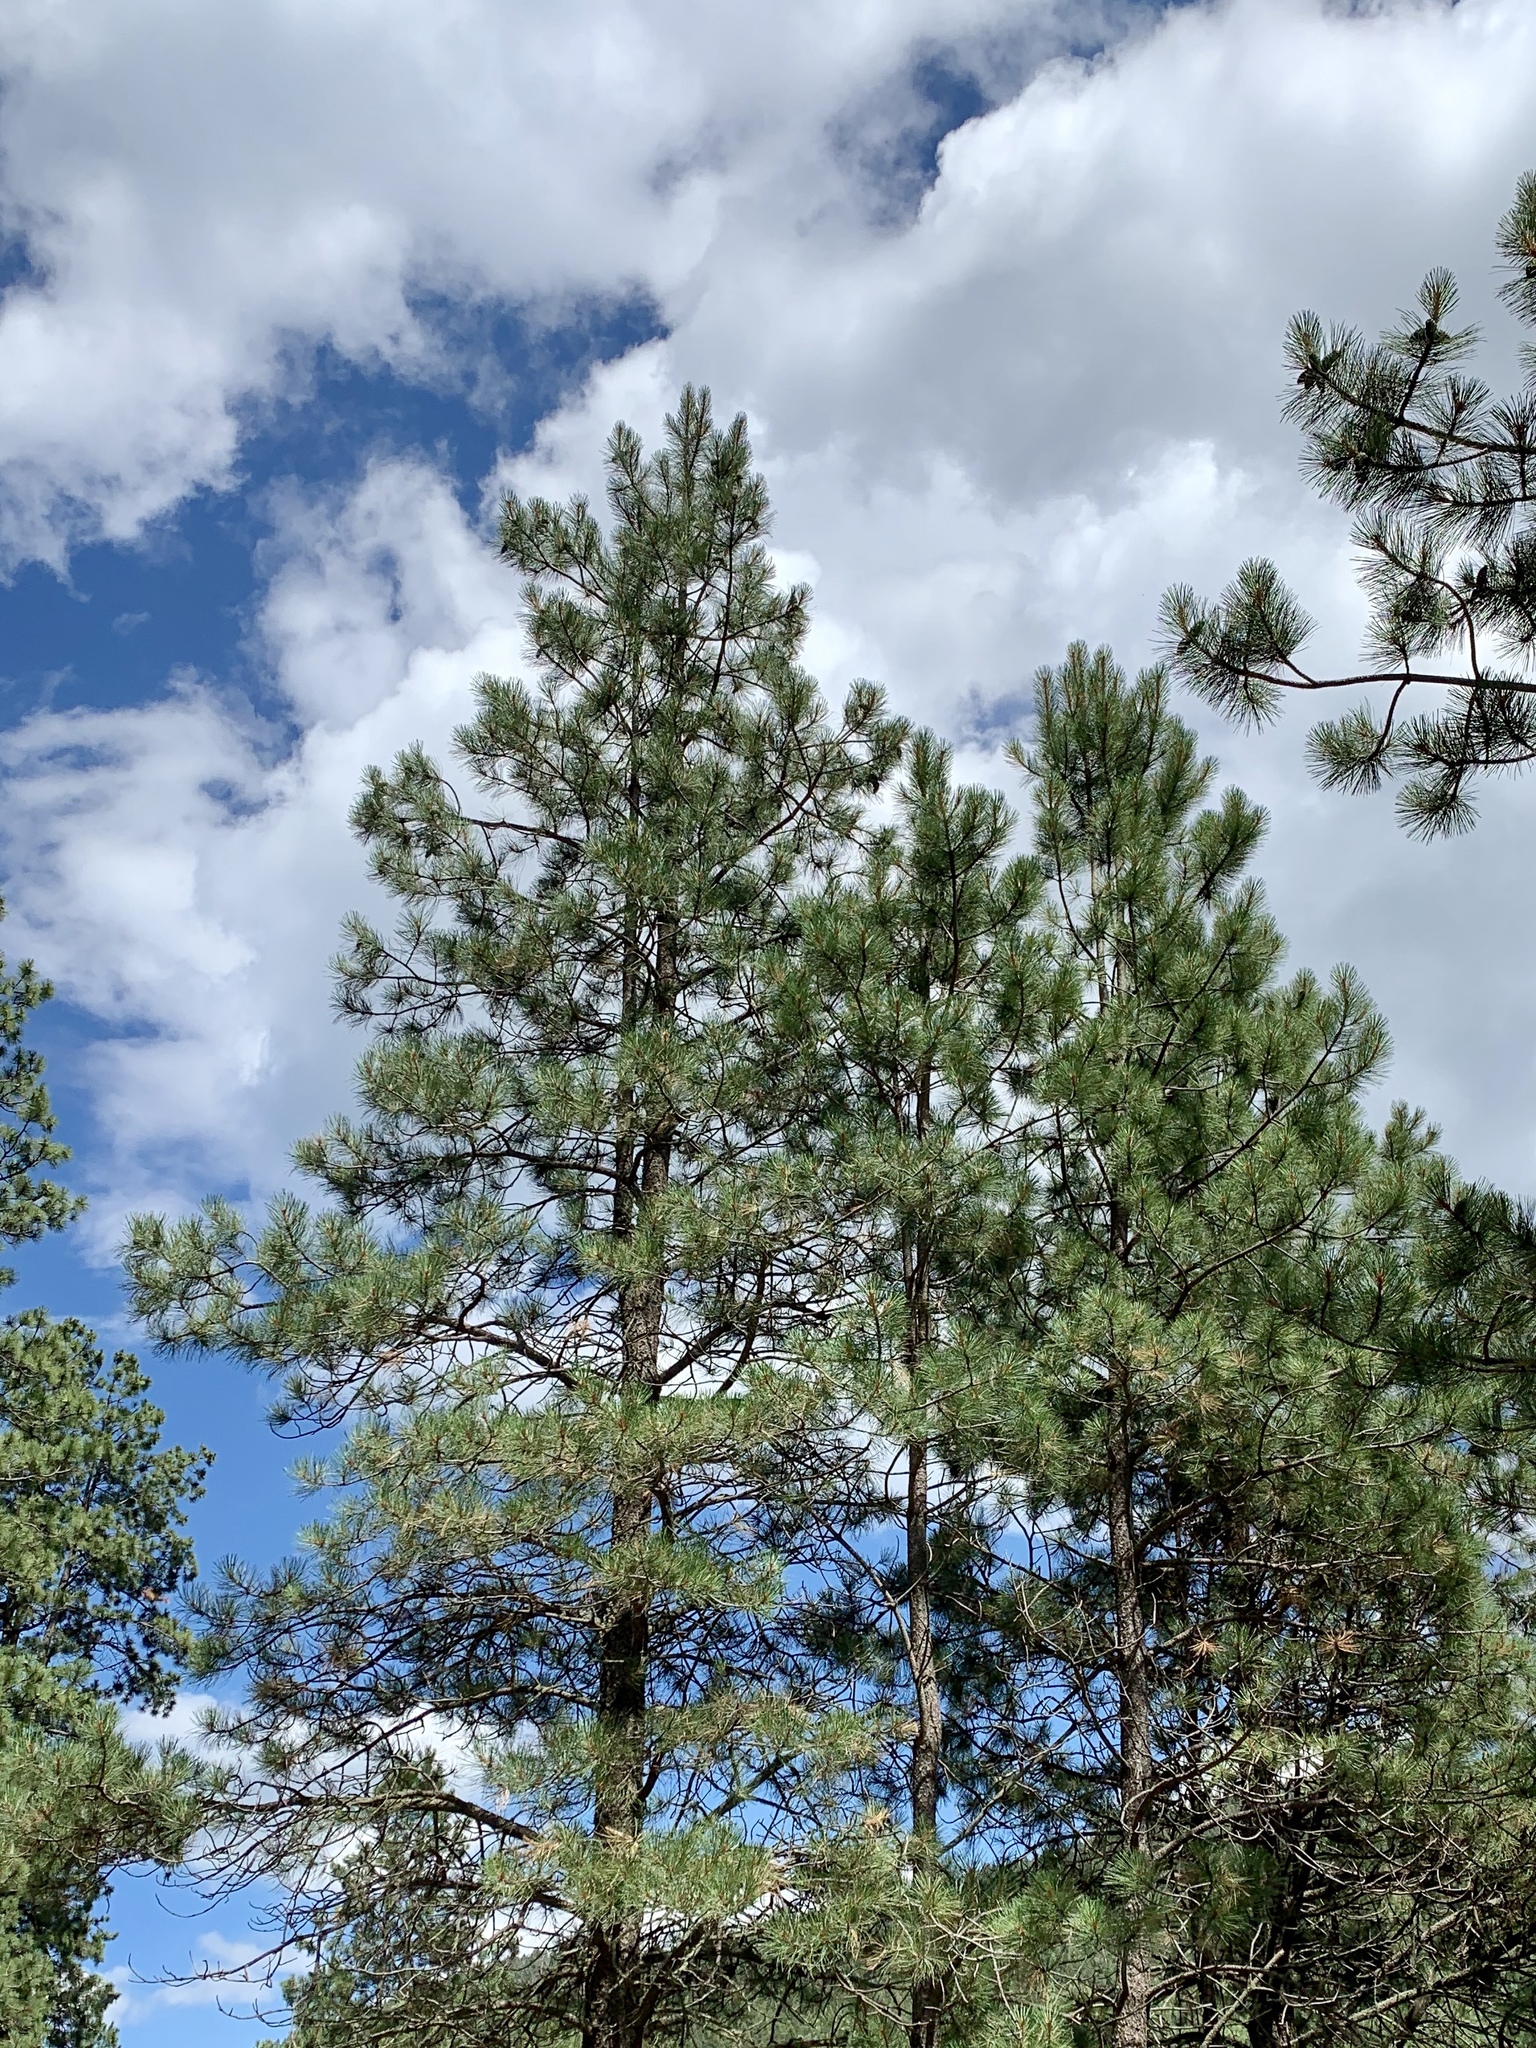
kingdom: Plantae
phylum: Tracheophyta
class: Pinopsida
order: Pinales
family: Pinaceae
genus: Pinus
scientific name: Pinus ponderosa
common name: Western yellow-pine
